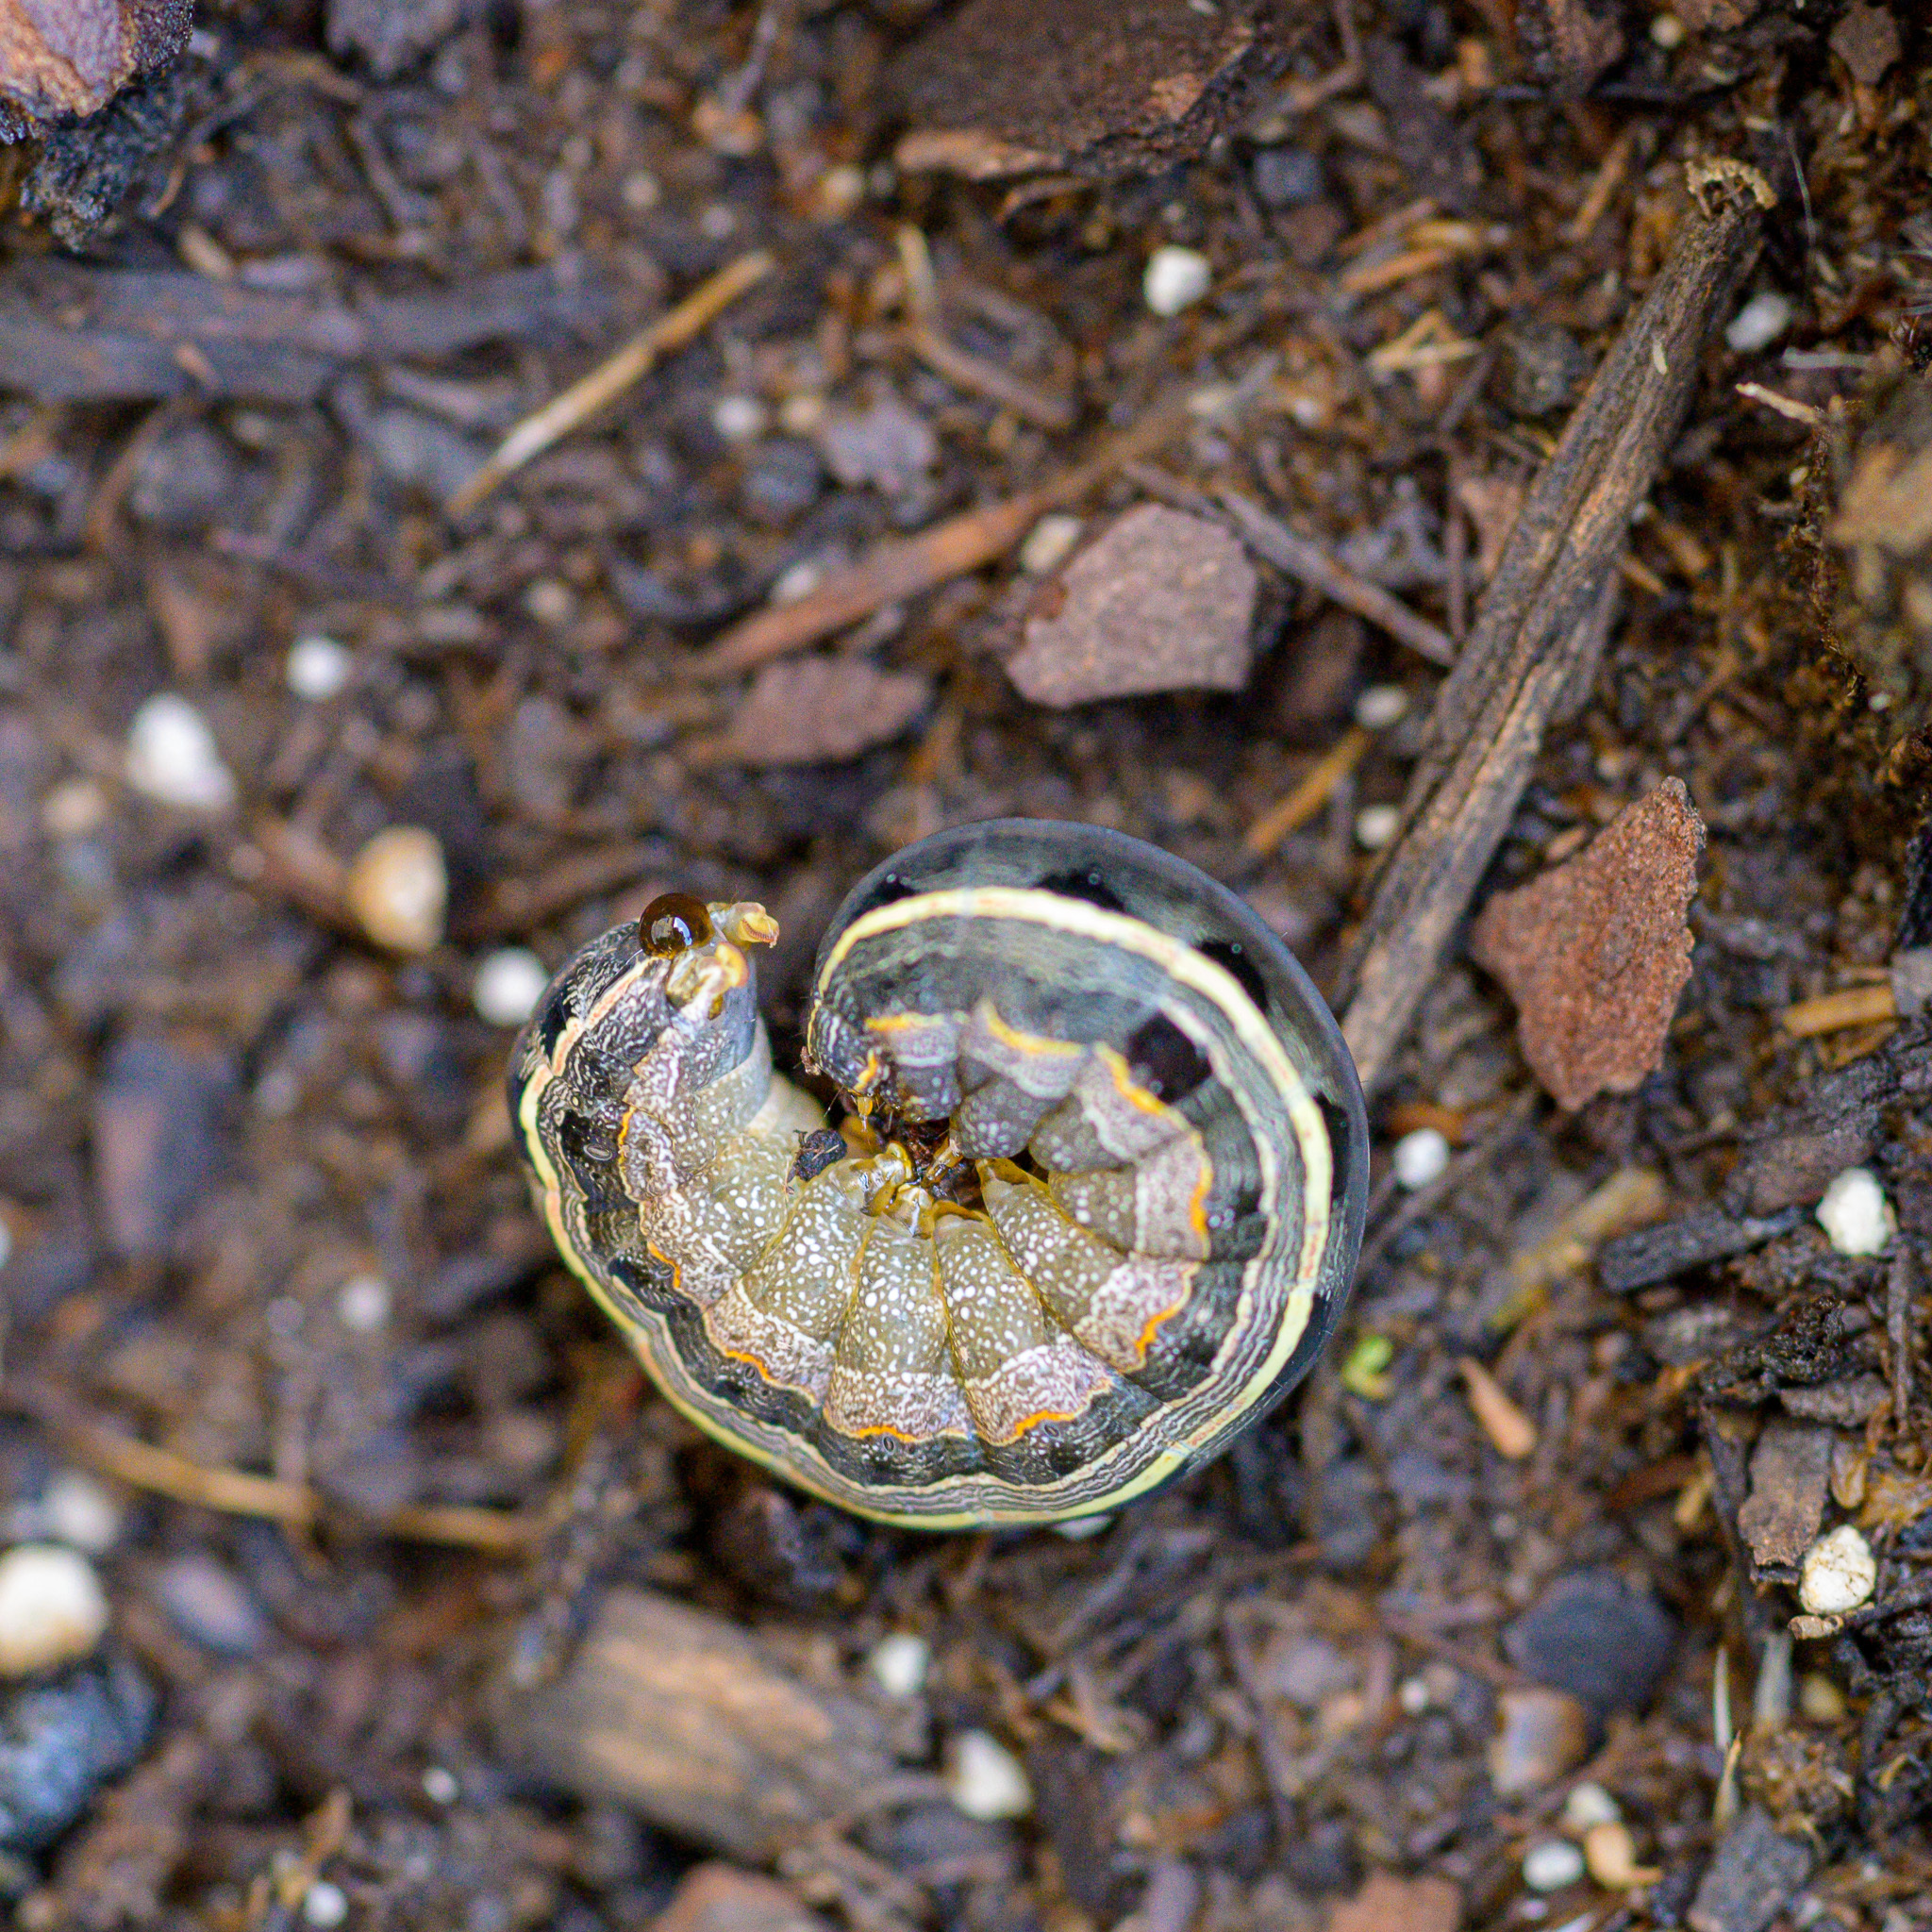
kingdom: Animalia
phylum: Arthropoda
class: Insecta
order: Lepidoptera
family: Noctuidae
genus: Spodoptera
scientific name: Spodoptera ornithogalli
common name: Yellow-striped armyworm
